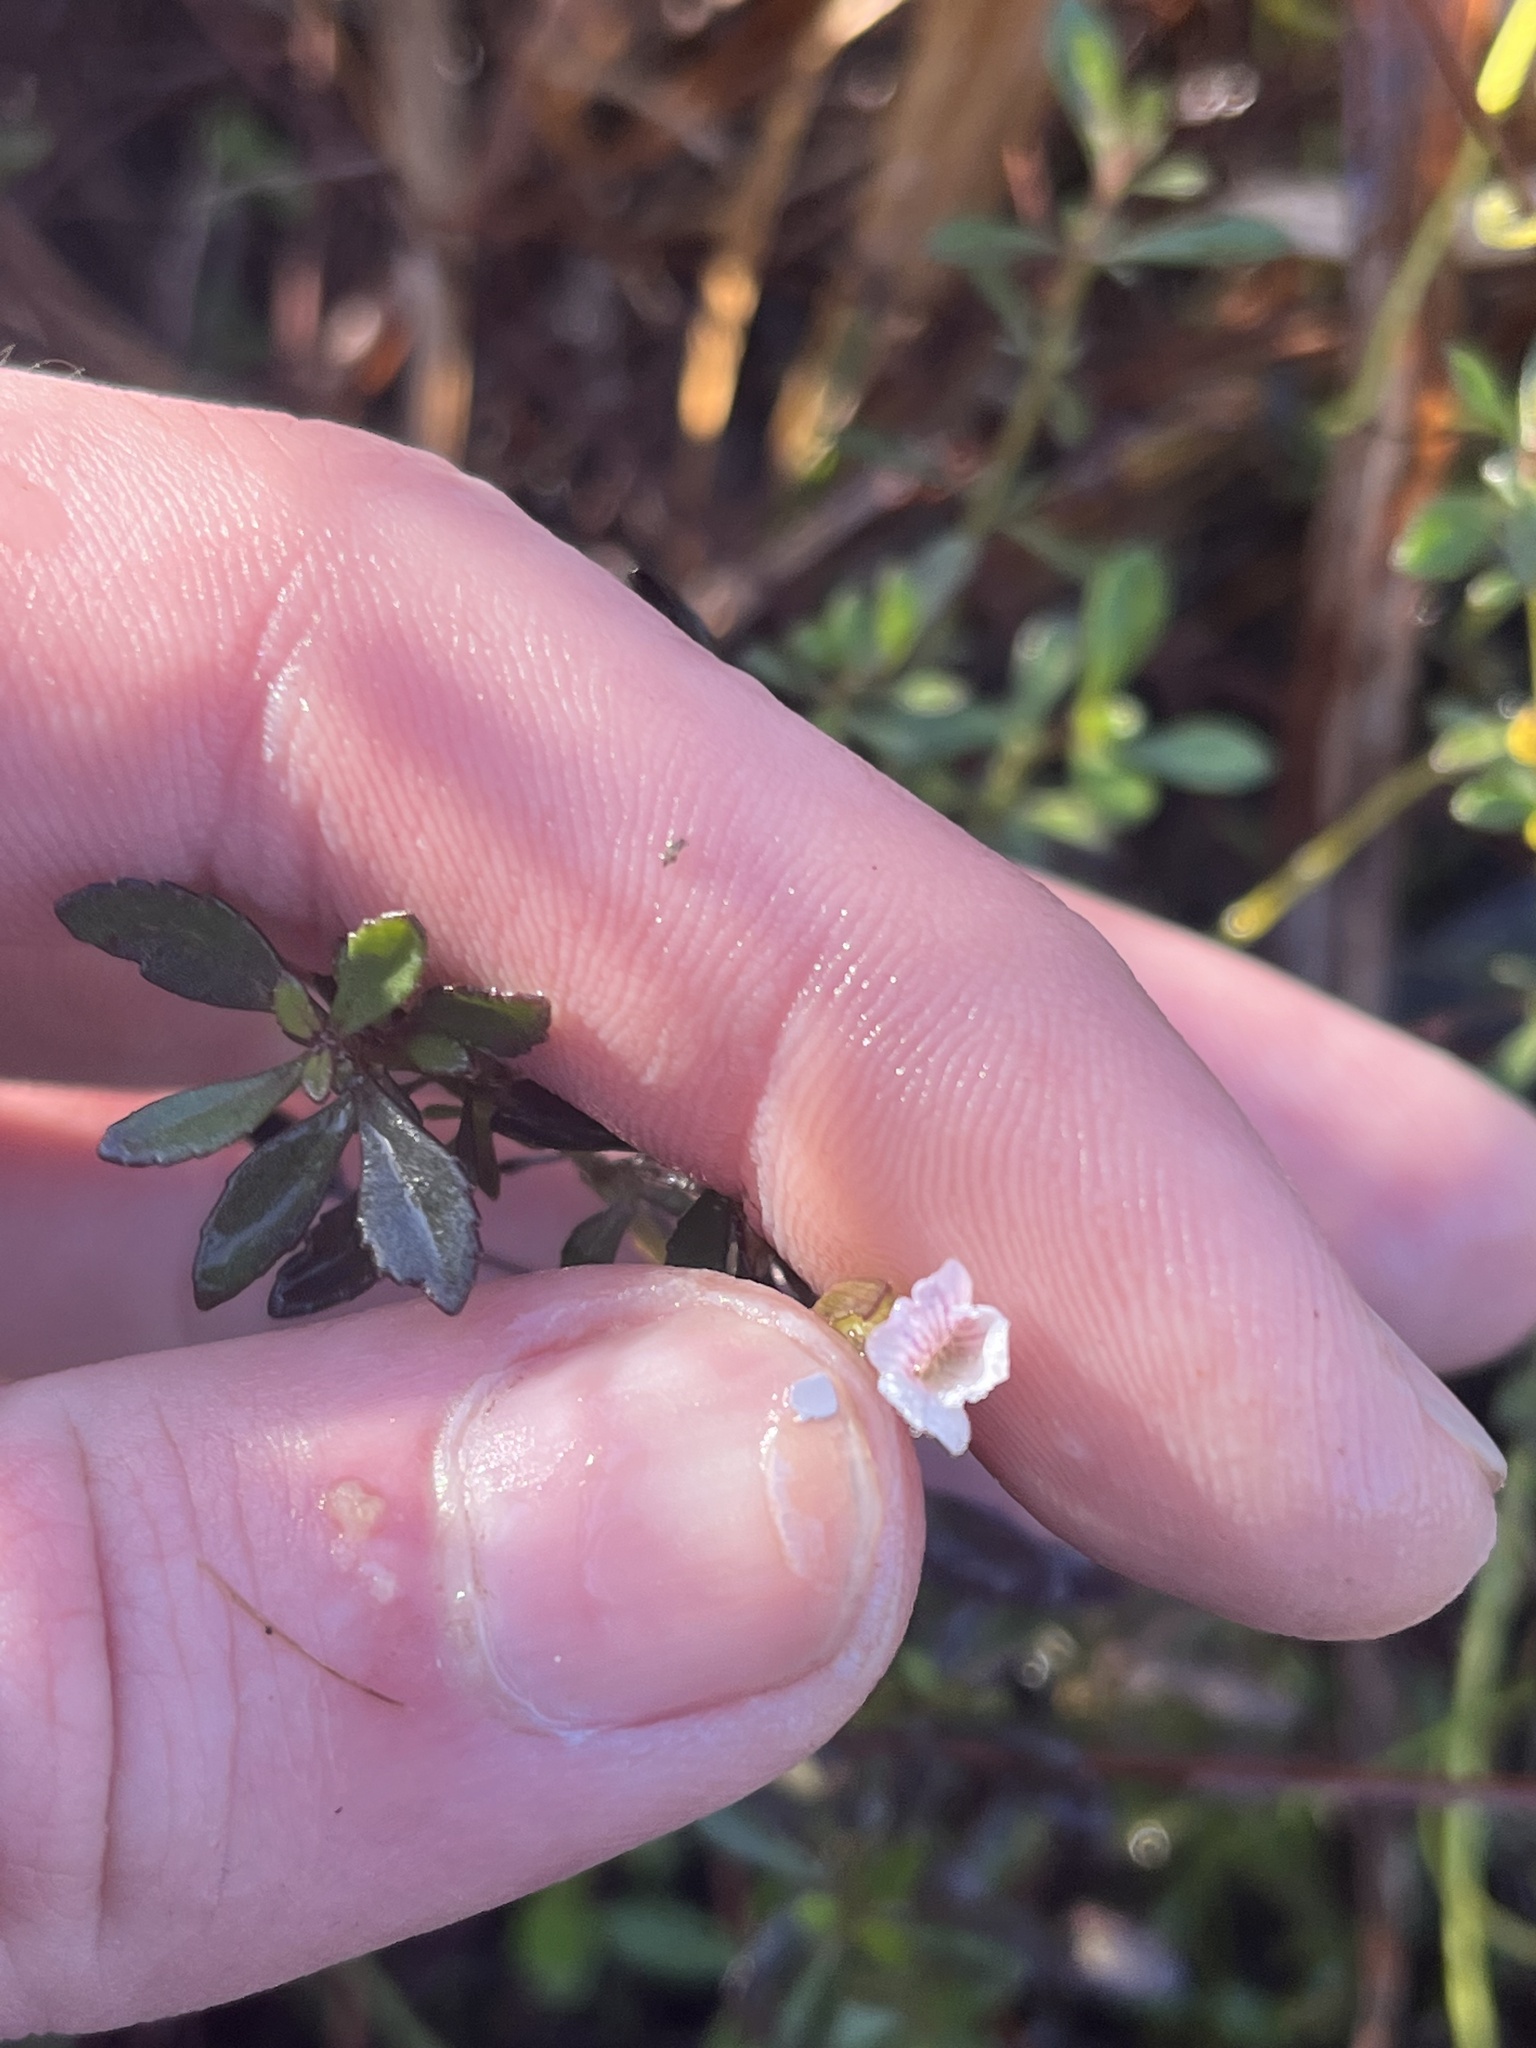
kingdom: Plantae
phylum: Tracheophyta
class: Magnoliopsida
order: Lamiales
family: Plantaginaceae
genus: Mecardonia
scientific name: Mecardonia acuminata
